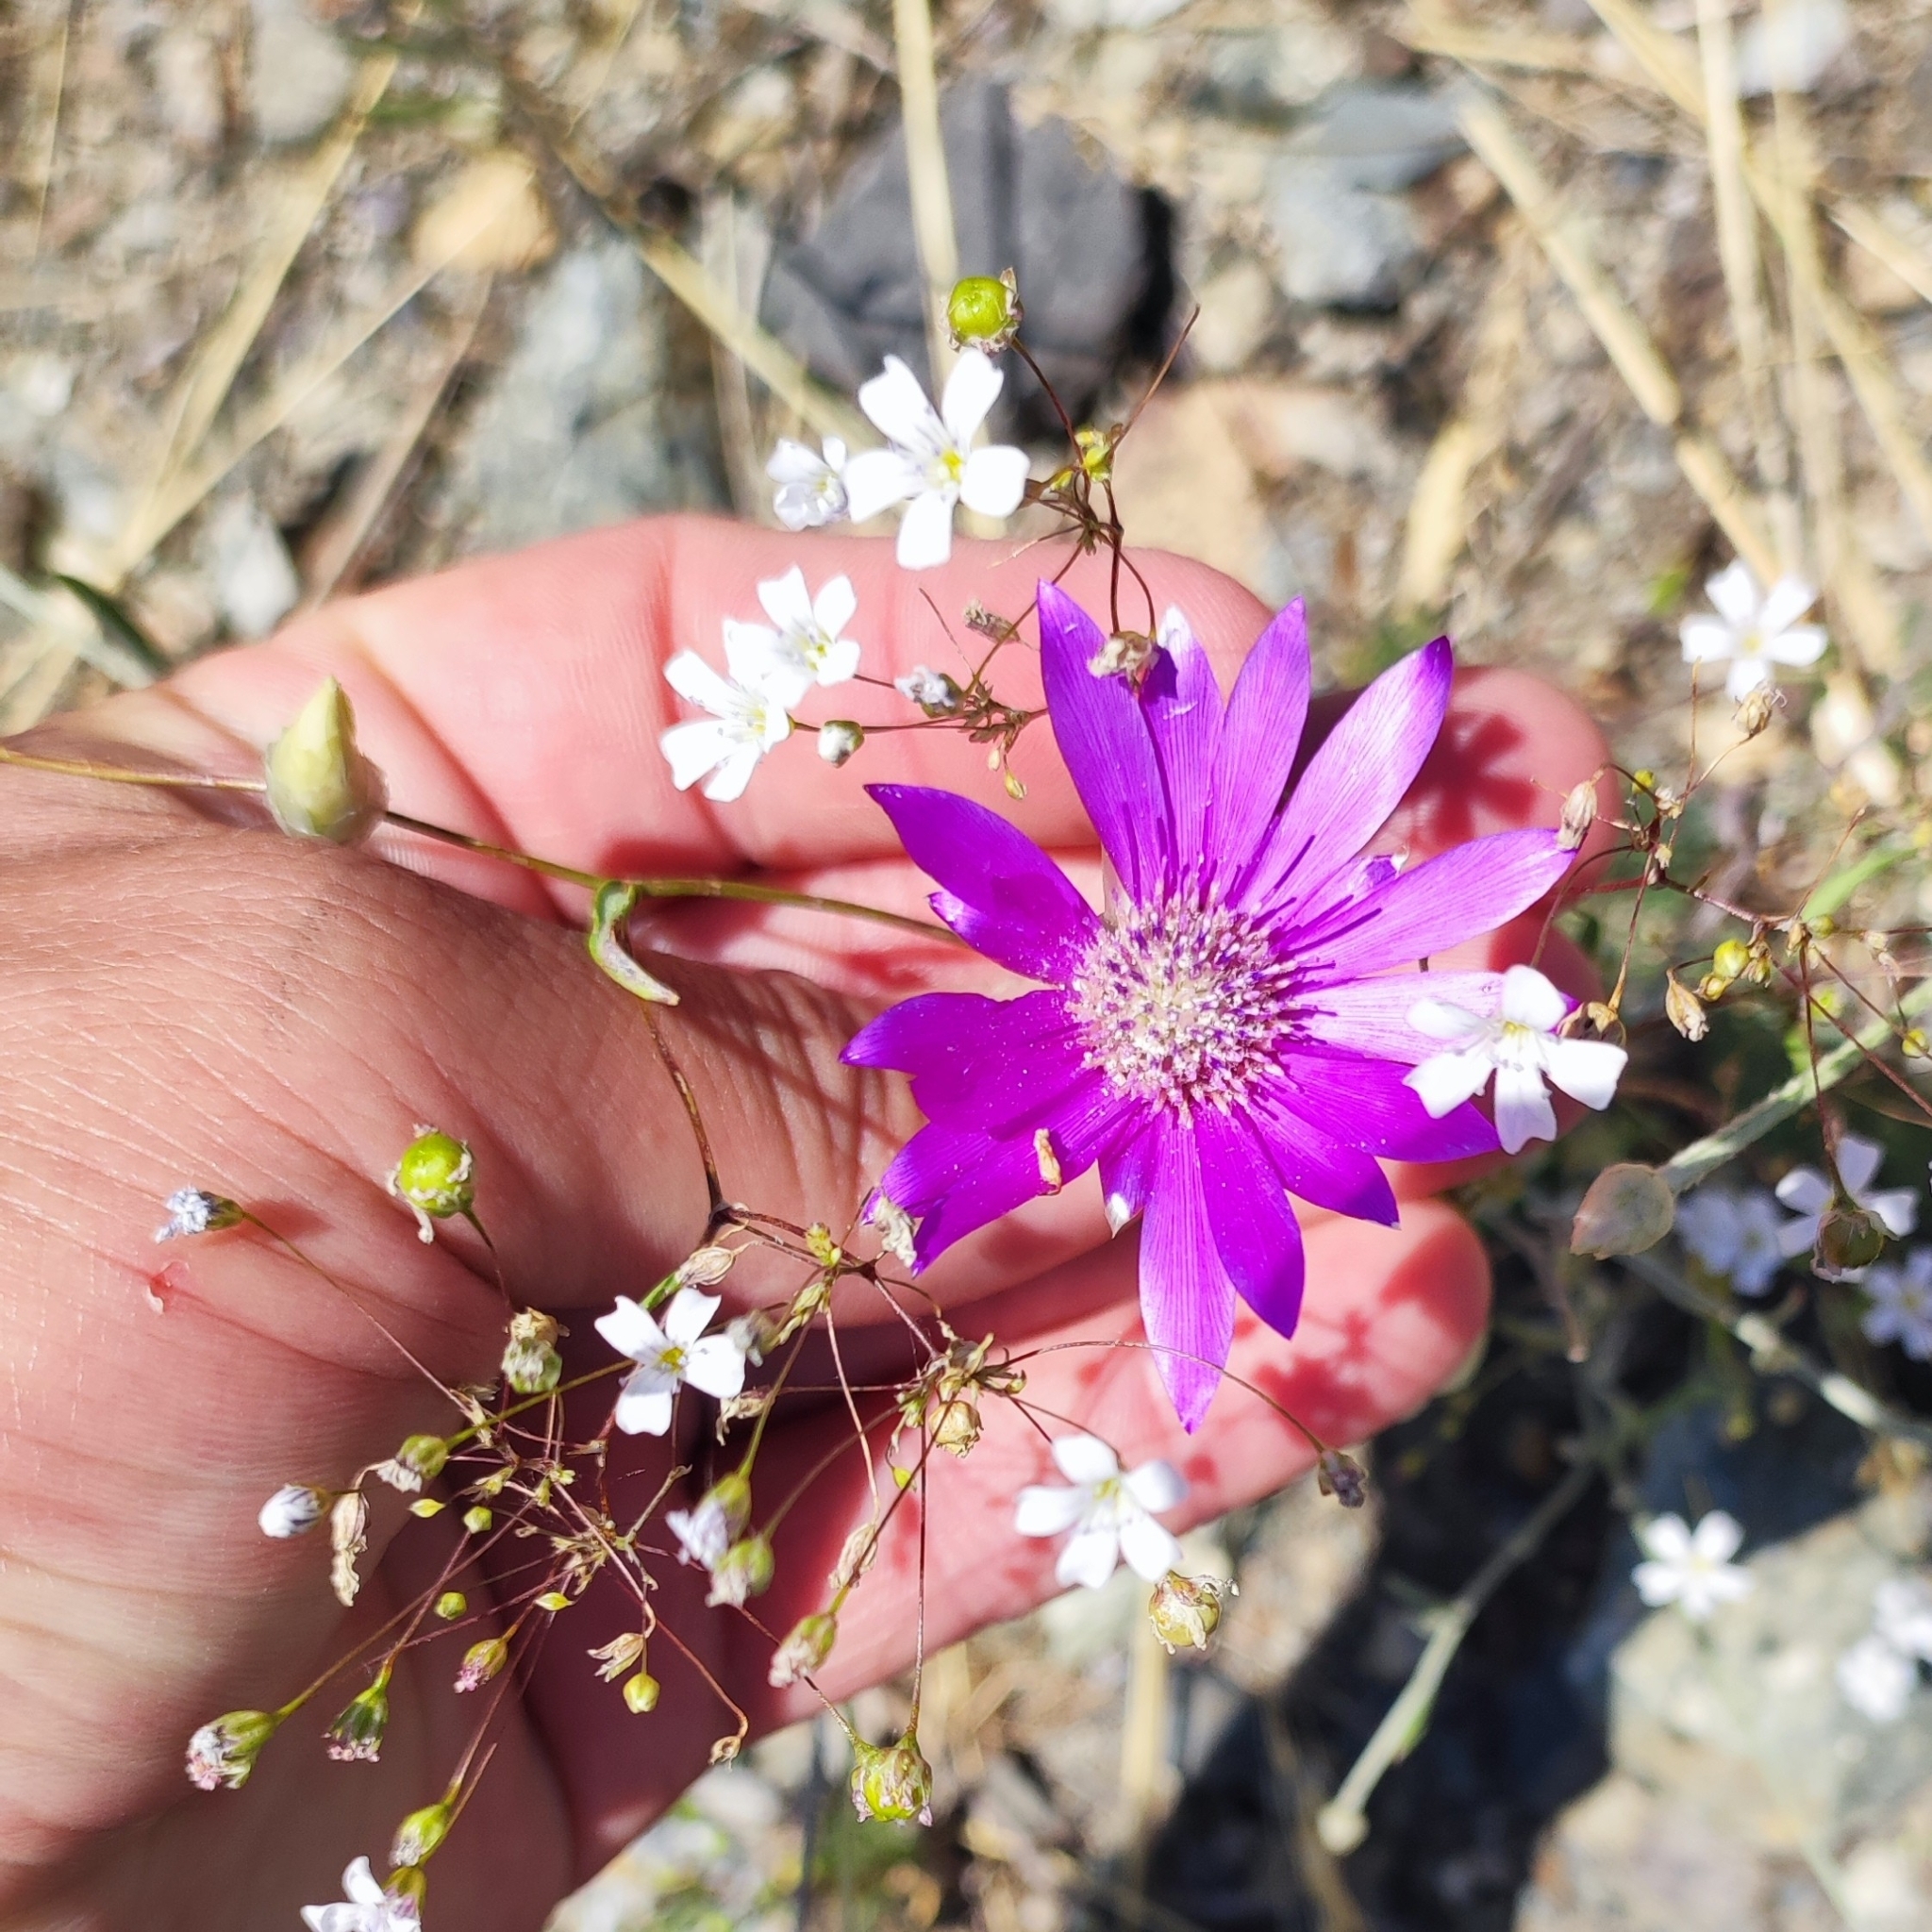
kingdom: Plantae
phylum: Tracheophyta
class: Magnoliopsida
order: Asterales
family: Asteraceae
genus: Xeranthemum
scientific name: Xeranthemum annuum
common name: Immortelle
